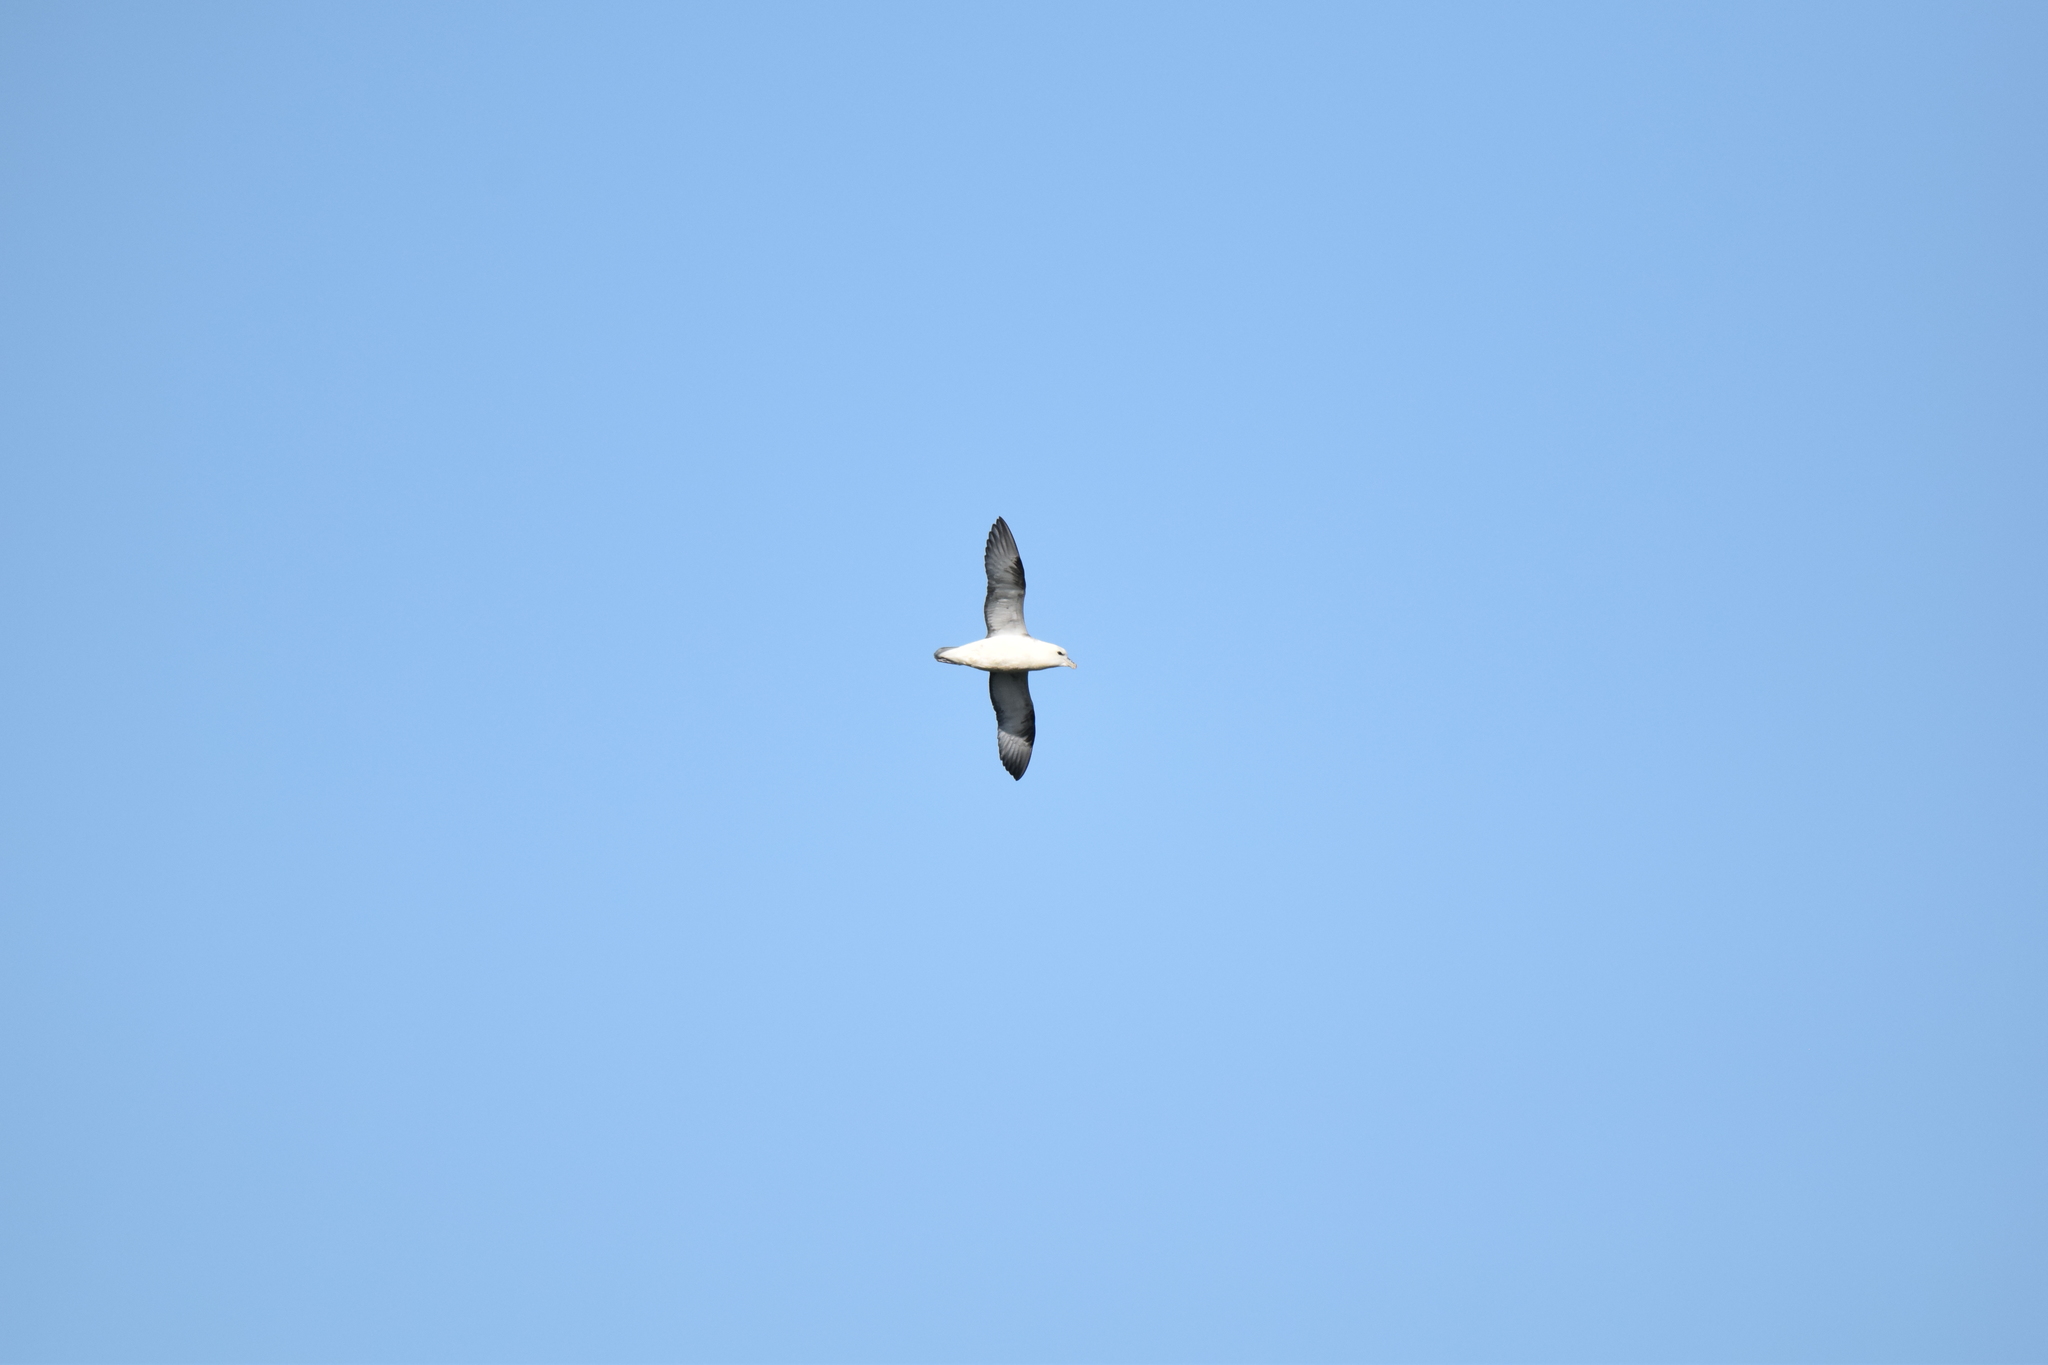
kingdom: Animalia
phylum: Chordata
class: Aves
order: Procellariiformes
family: Procellariidae
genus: Fulmarus
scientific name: Fulmarus glacialis
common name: Northern fulmar
